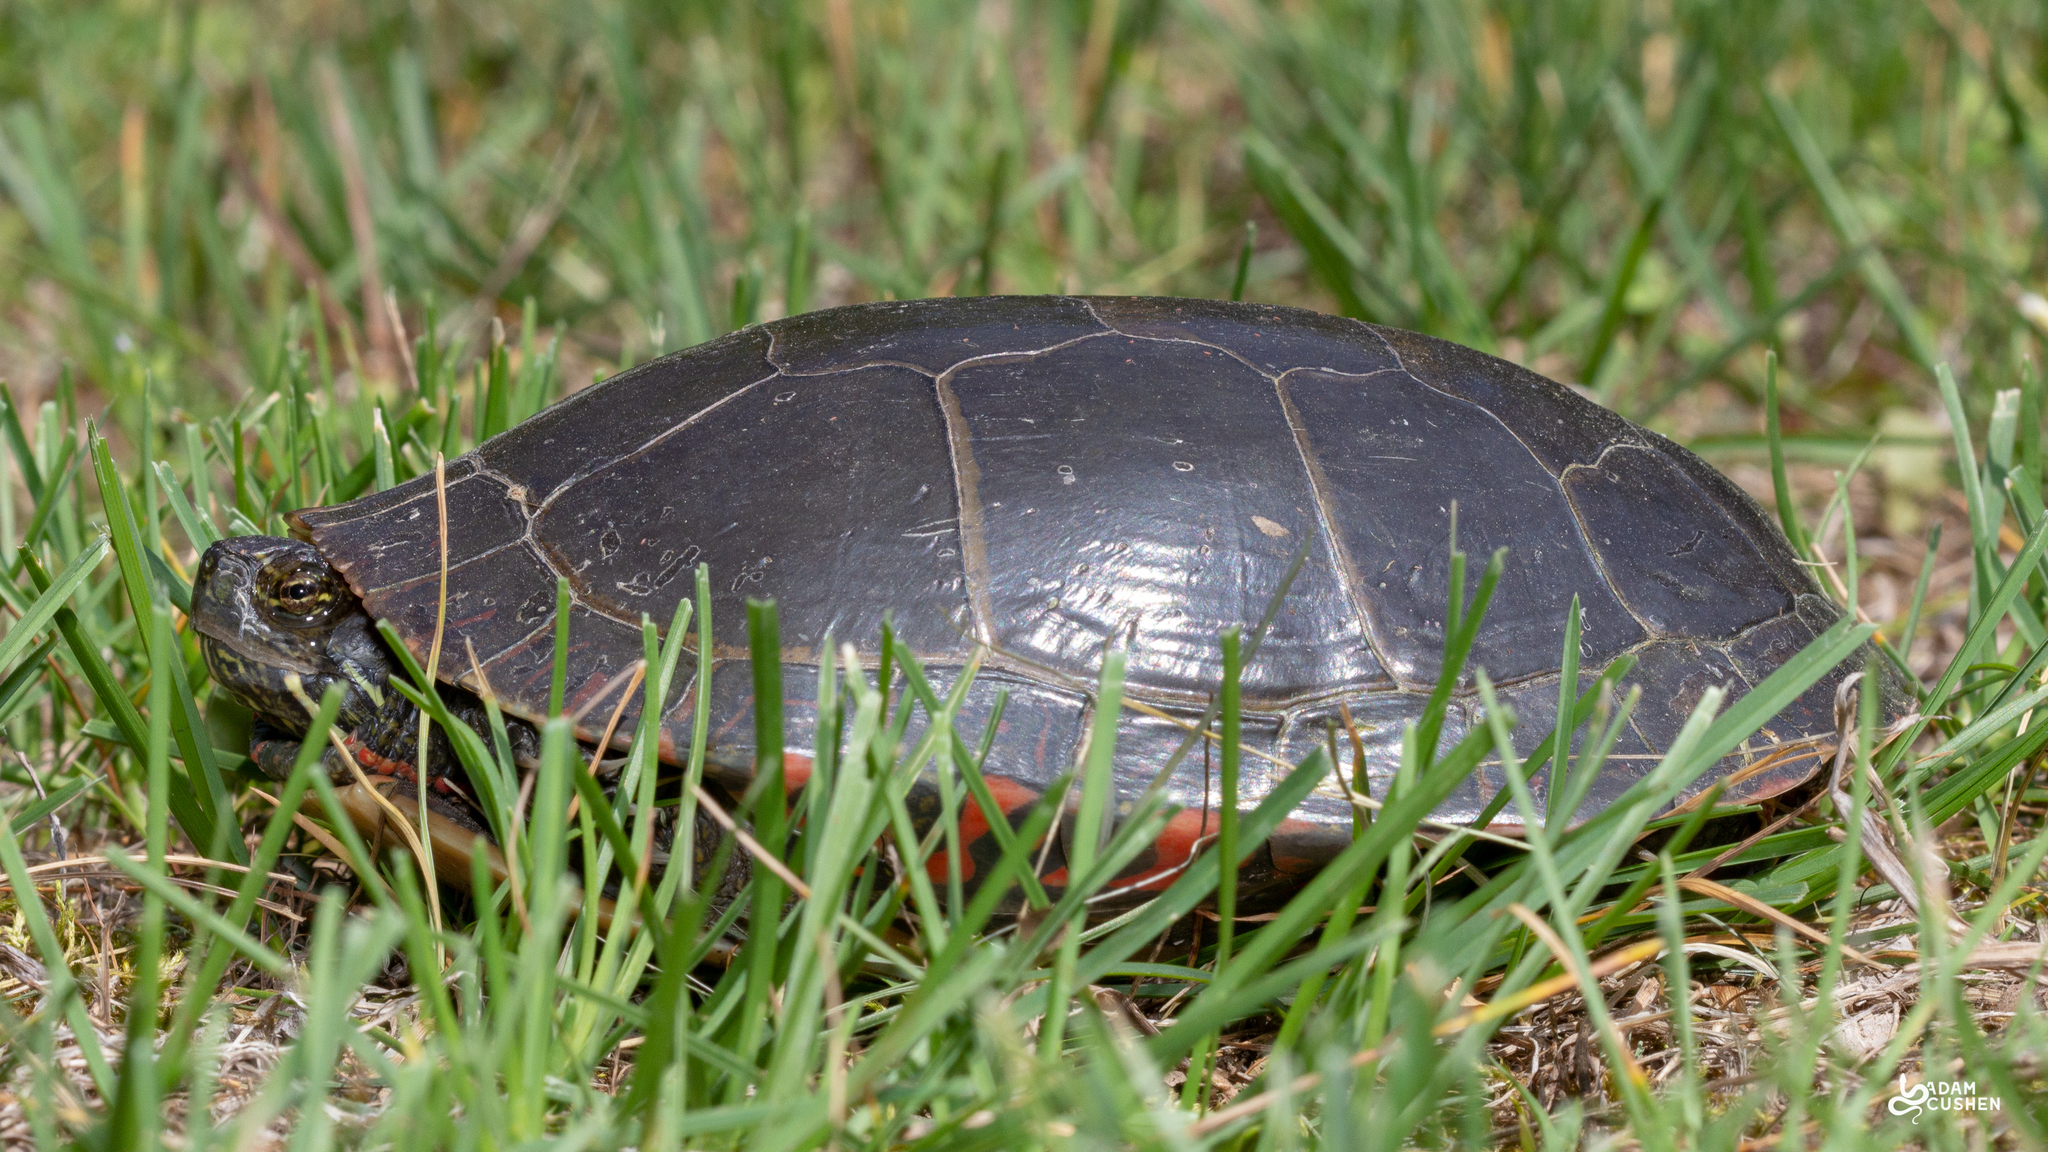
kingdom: Animalia
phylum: Chordata
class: Testudines
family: Emydidae
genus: Chrysemys
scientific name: Chrysemys picta
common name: Painted turtle
